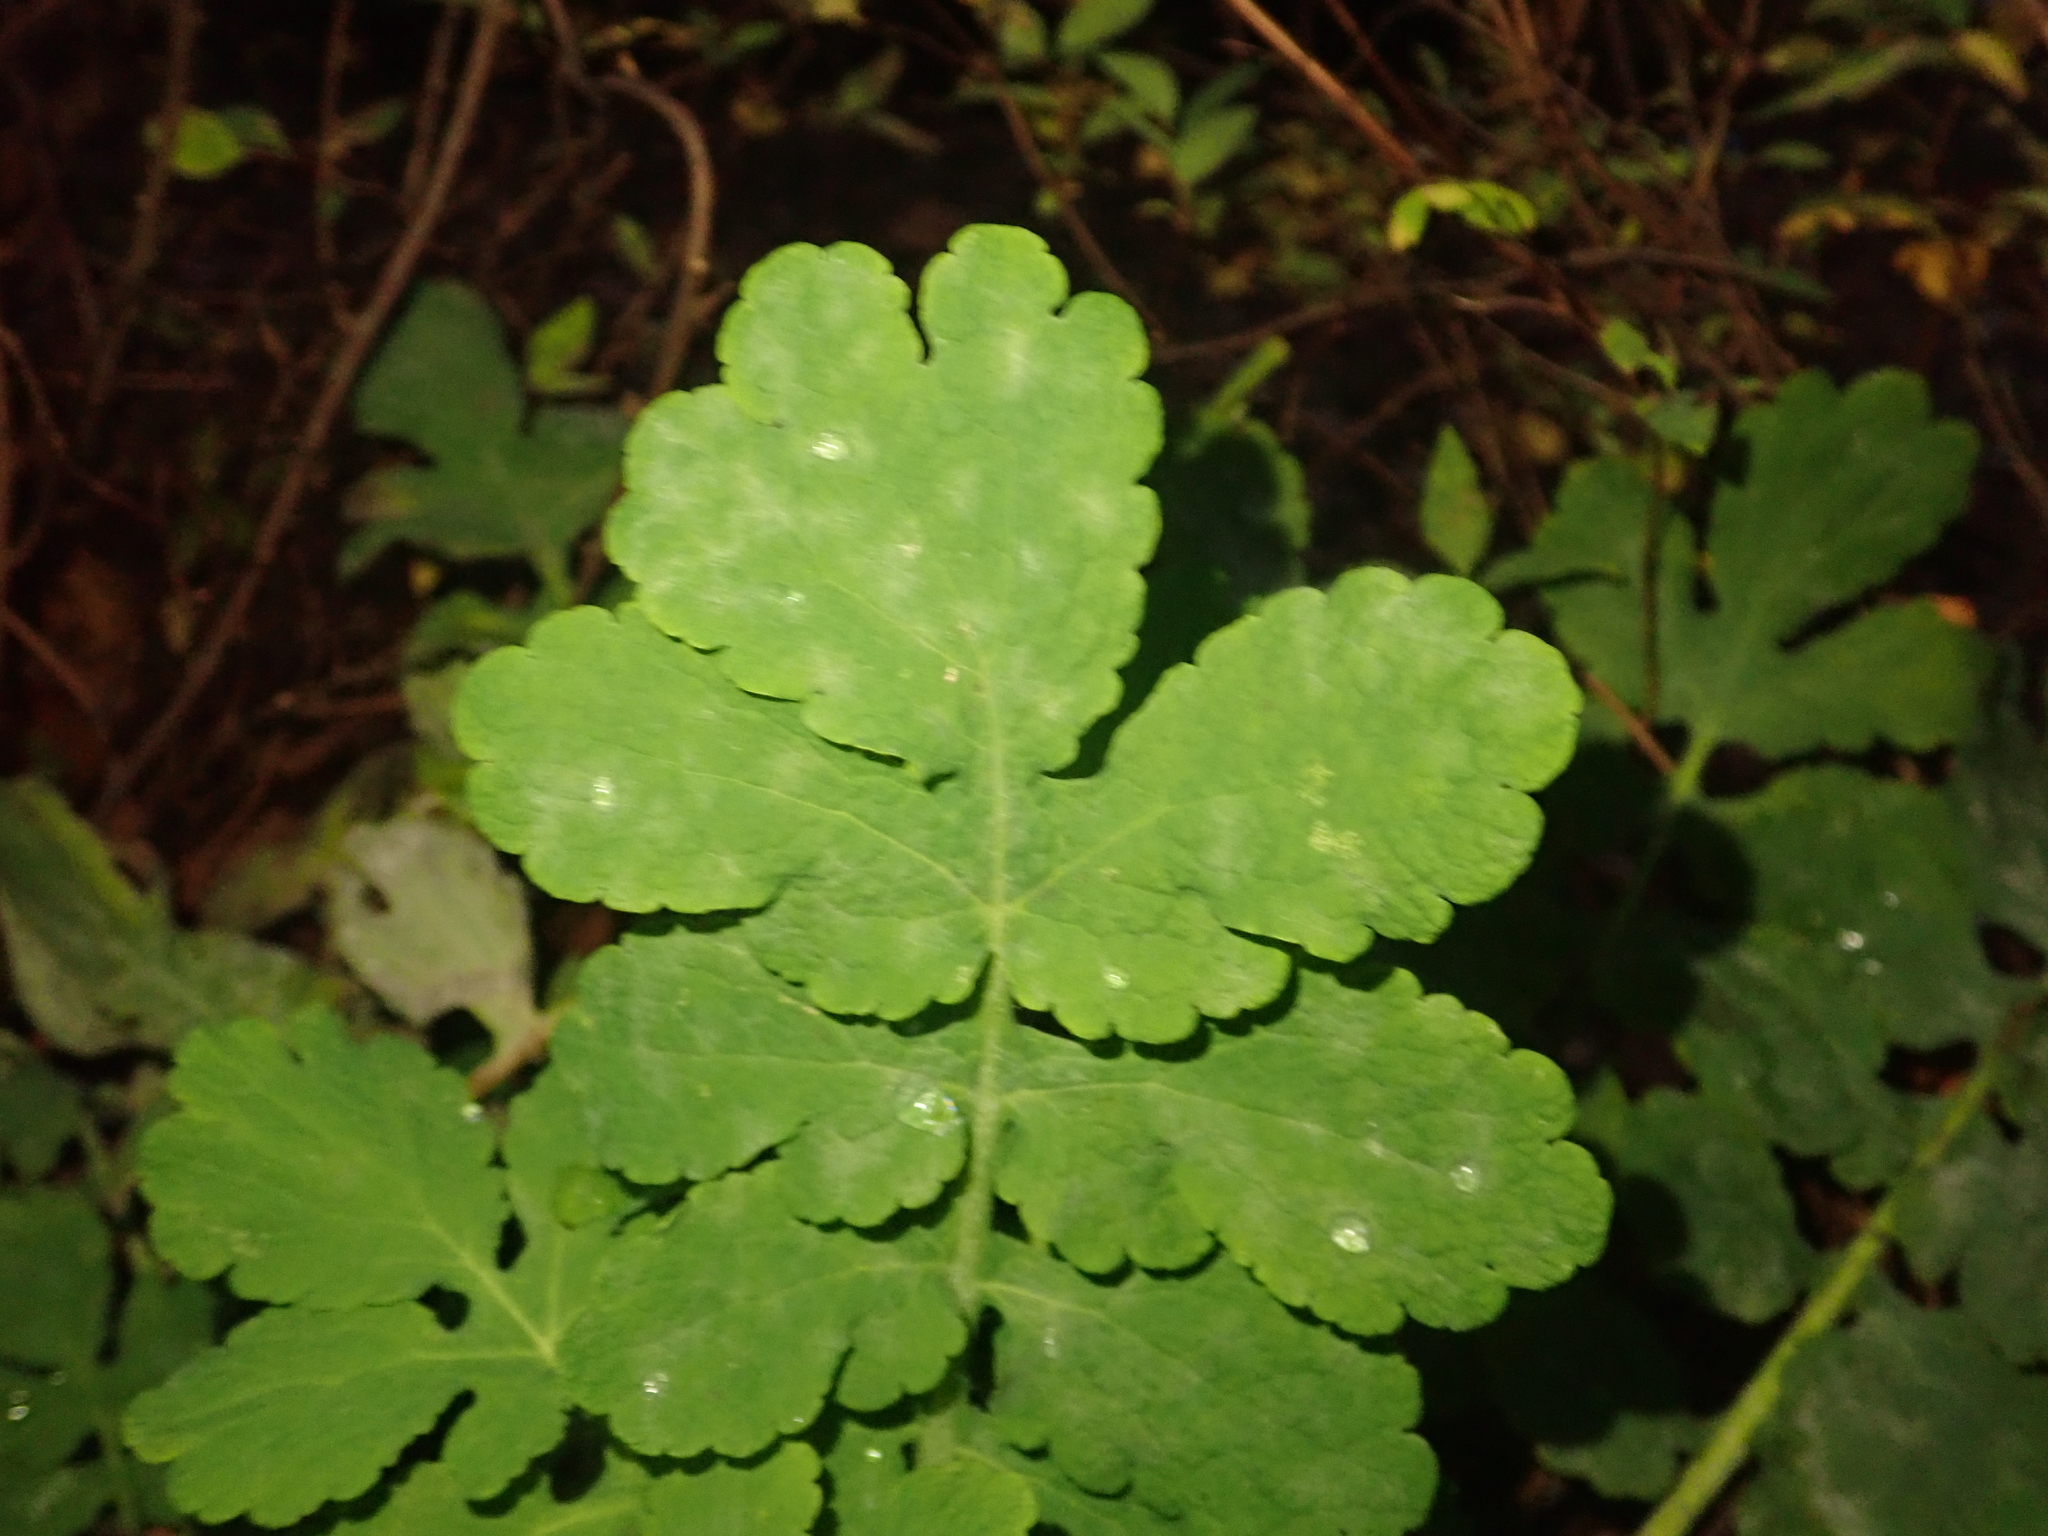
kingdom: Plantae
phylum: Tracheophyta
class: Magnoliopsida
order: Ranunculales
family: Papaveraceae
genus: Chelidonium
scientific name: Chelidonium majus
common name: Greater celandine
